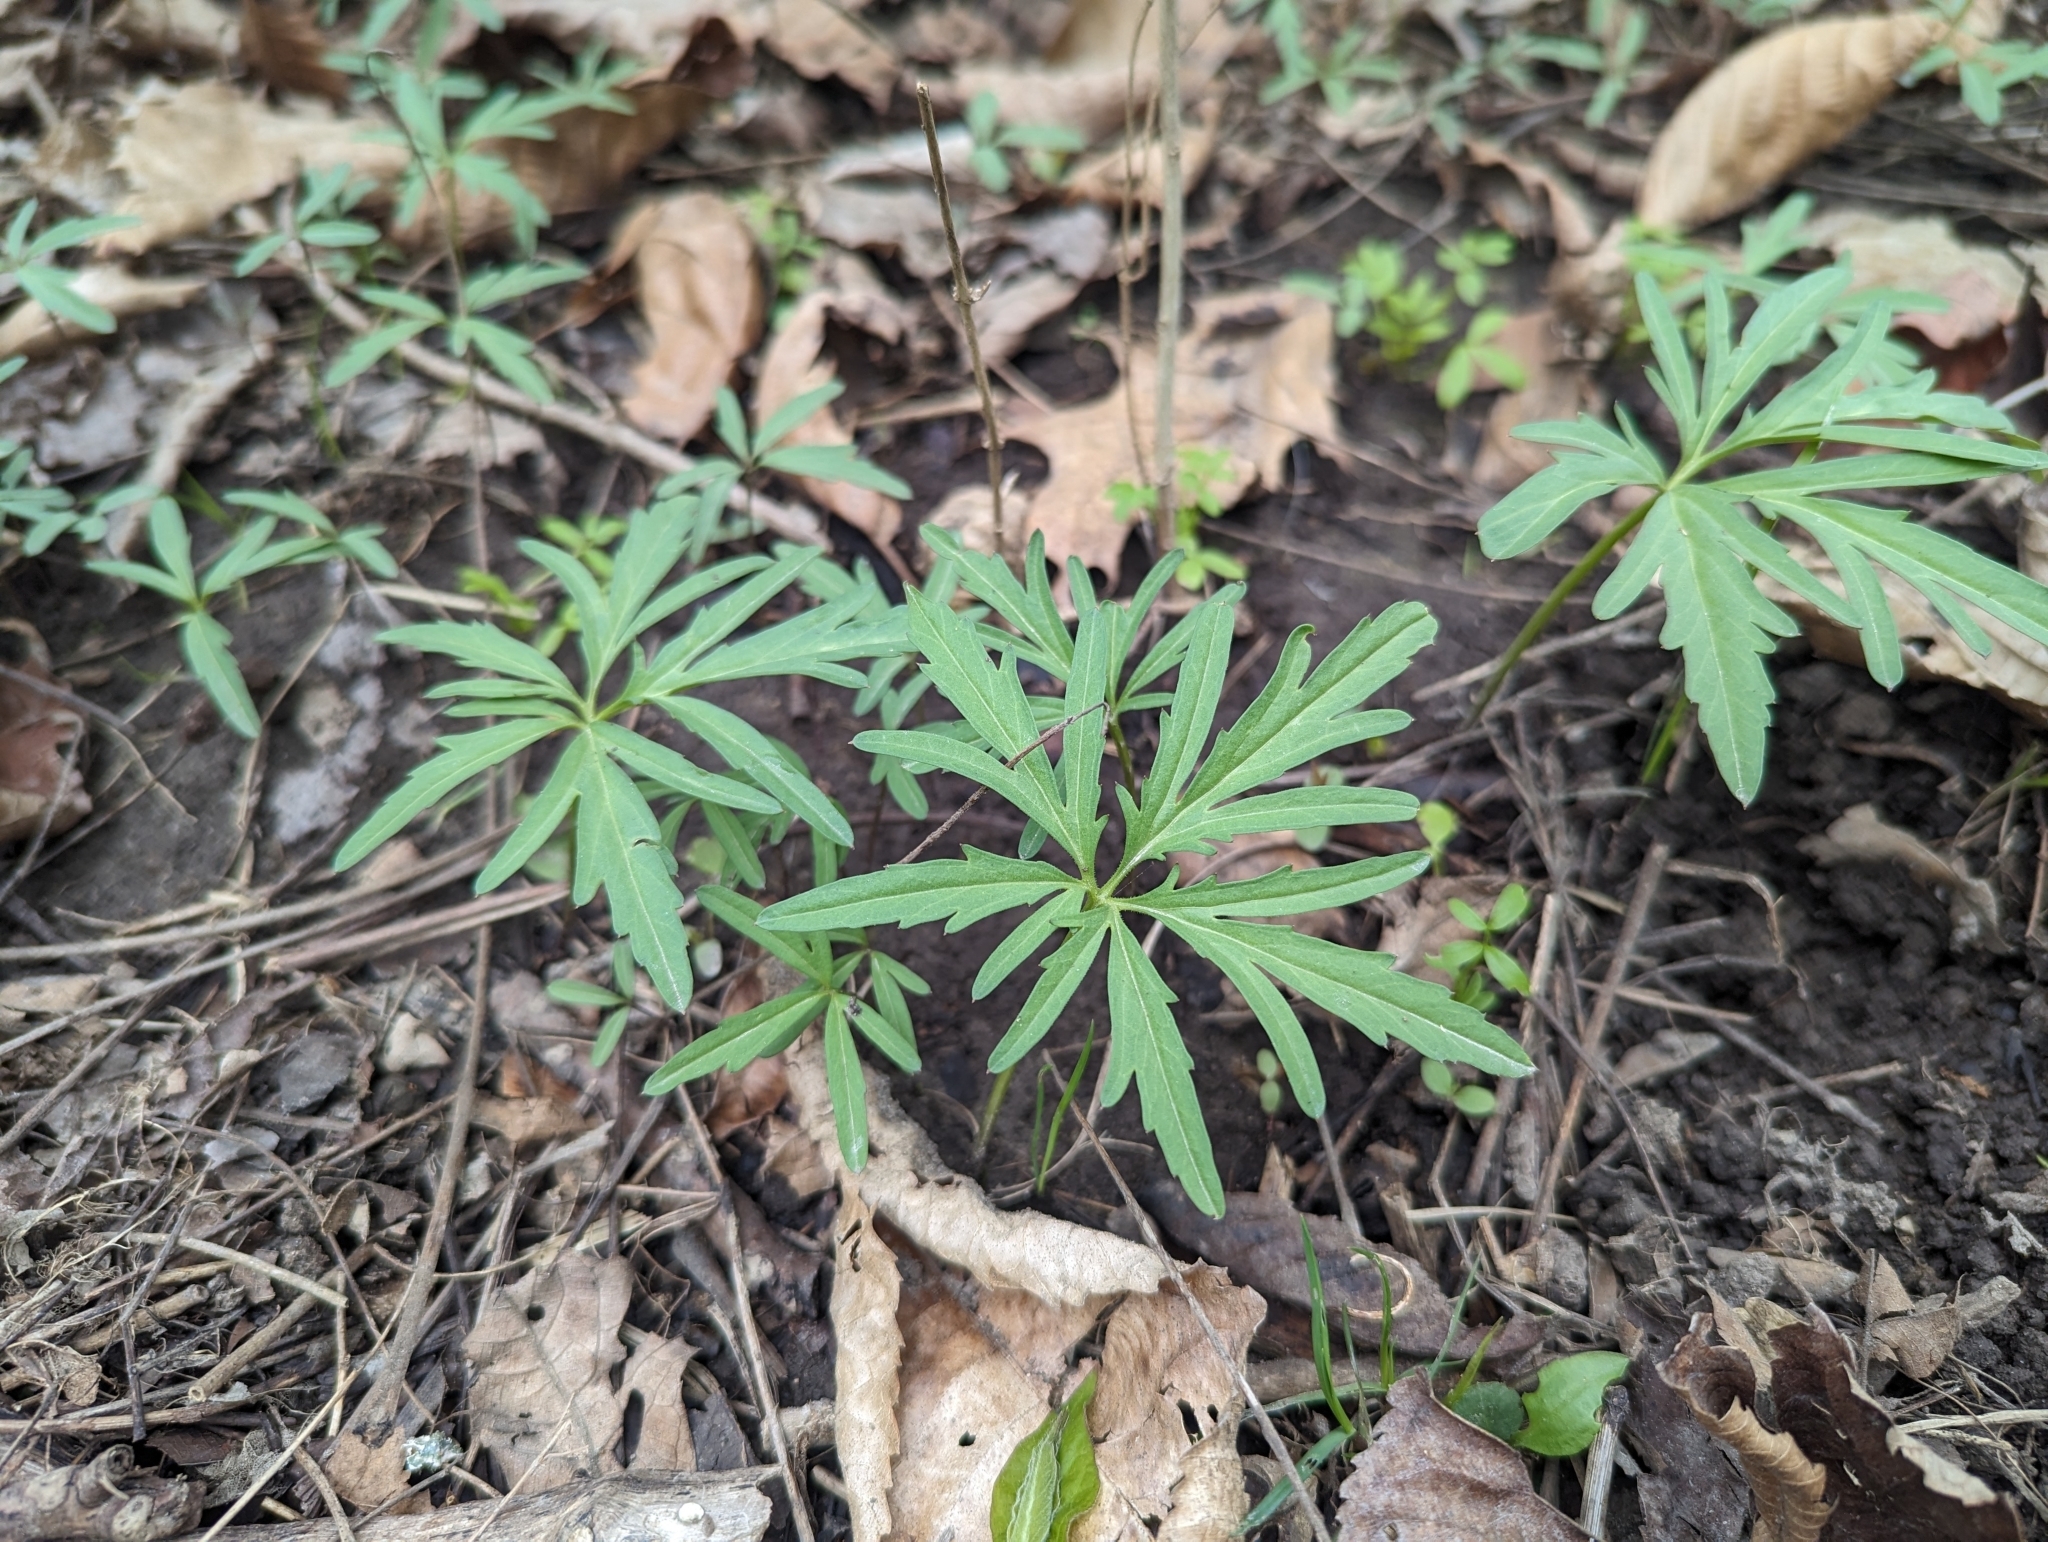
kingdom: Plantae
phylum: Tracheophyta
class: Magnoliopsida
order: Brassicales
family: Brassicaceae
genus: Cardamine
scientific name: Cardamine concatenata
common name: Cut-leaf toothcup
